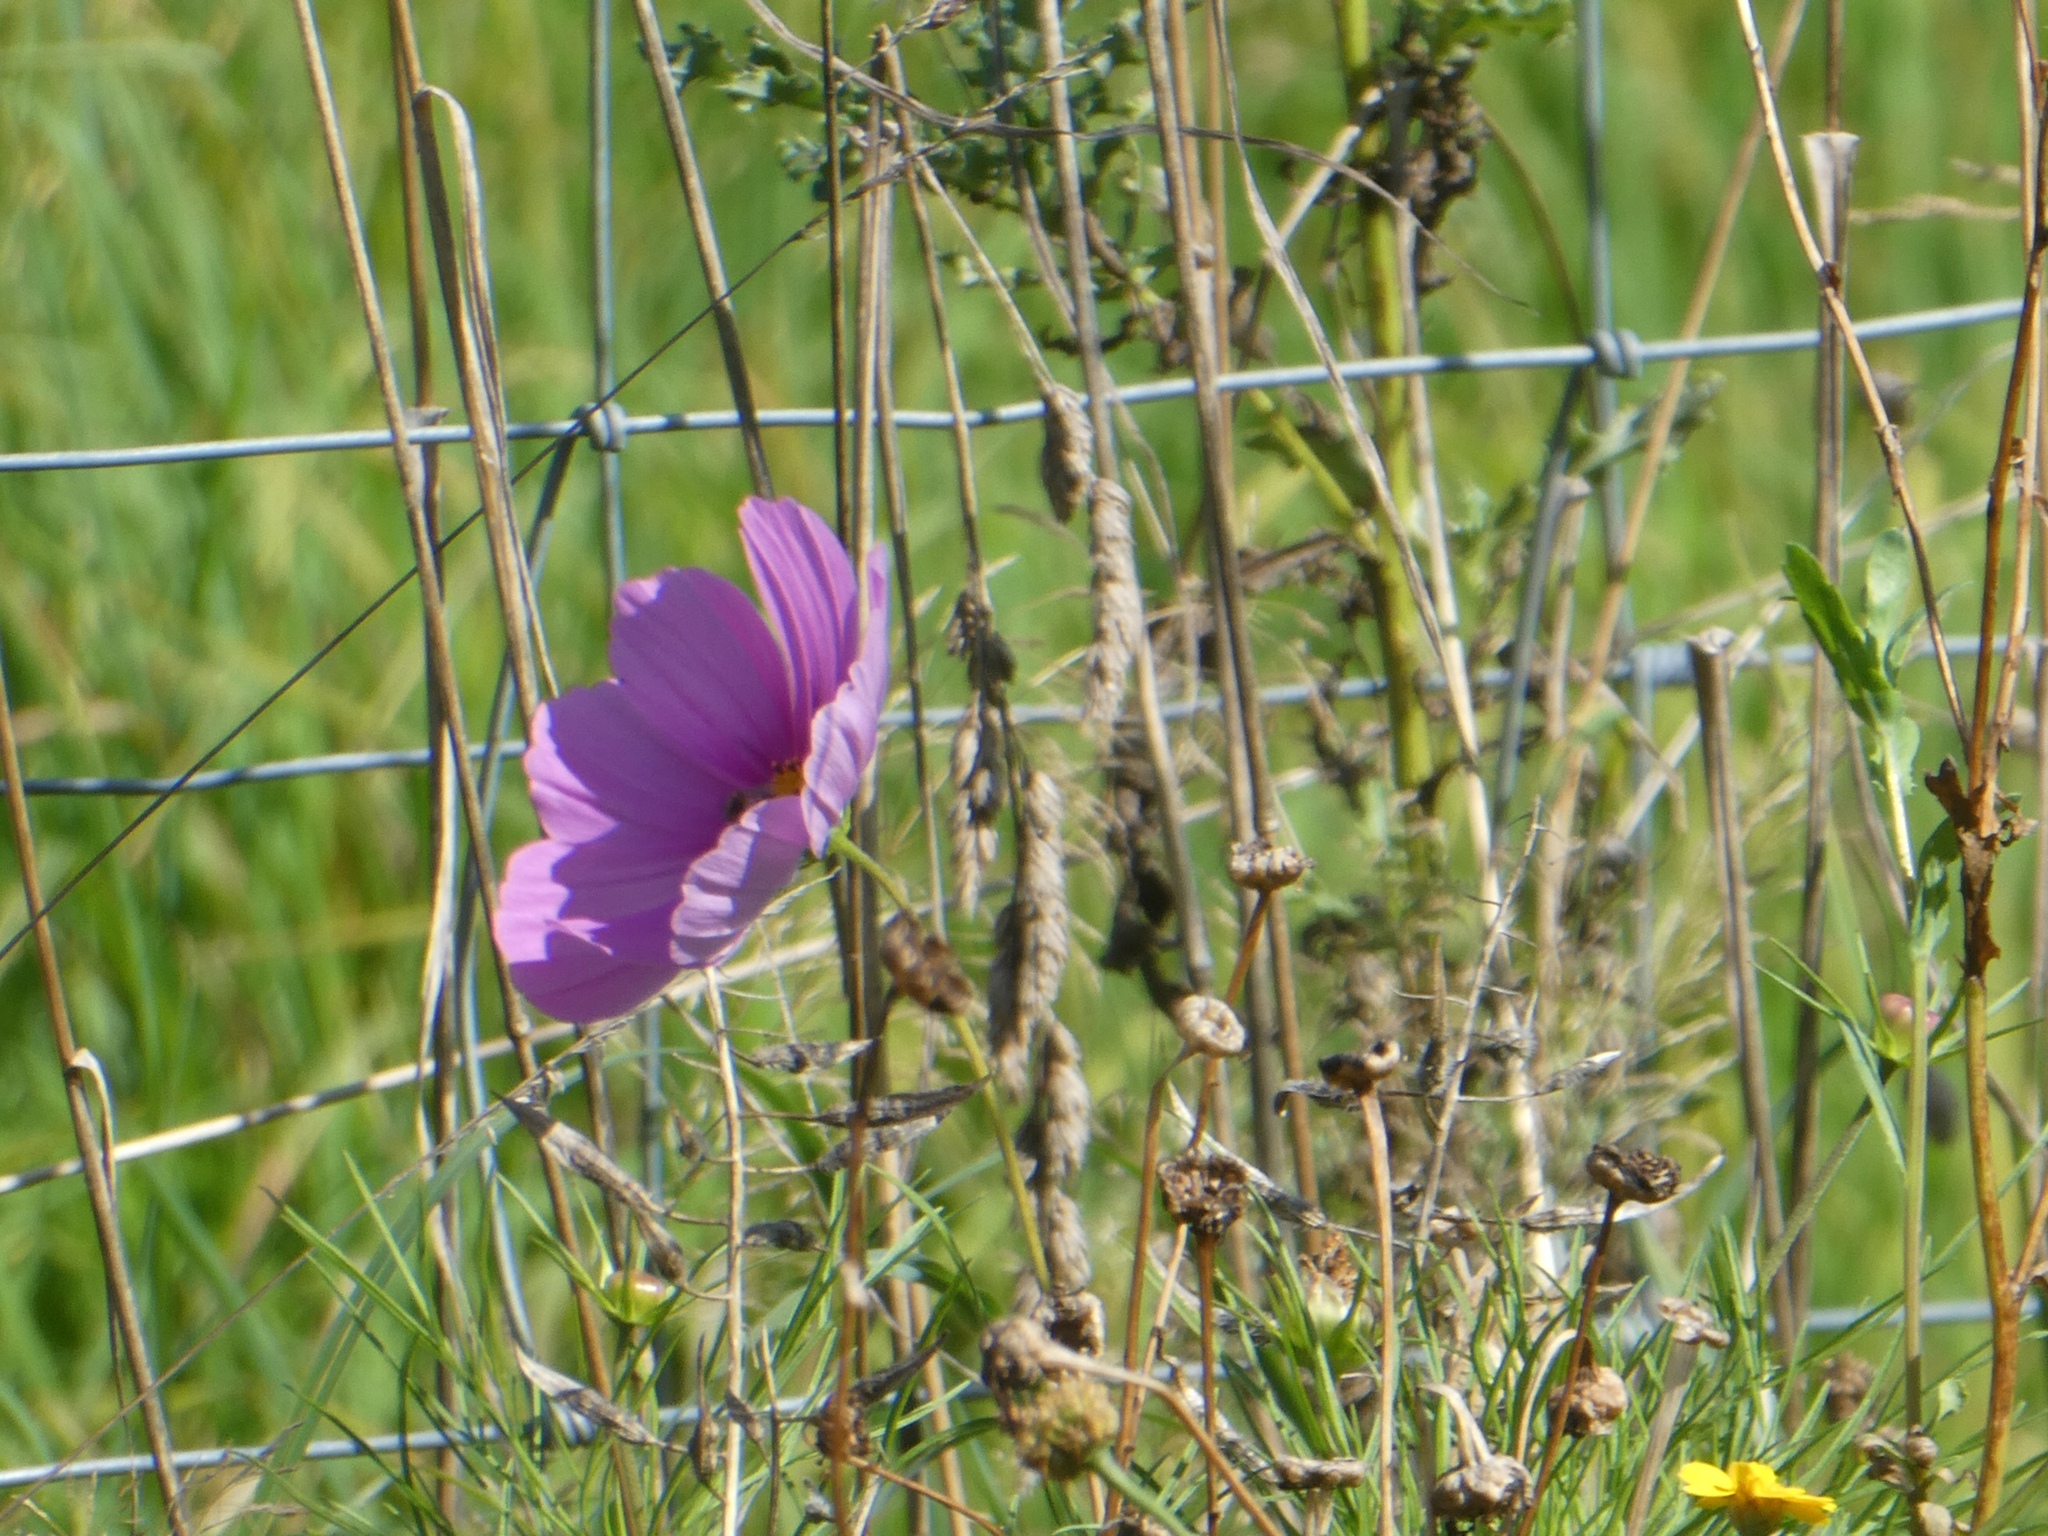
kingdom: Plantae
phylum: Tracheophyta
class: Magnoliopsida
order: Asterales
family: Asteraceae
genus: Cosmos
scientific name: Cosmos bipinnatus
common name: Garden cosmos
